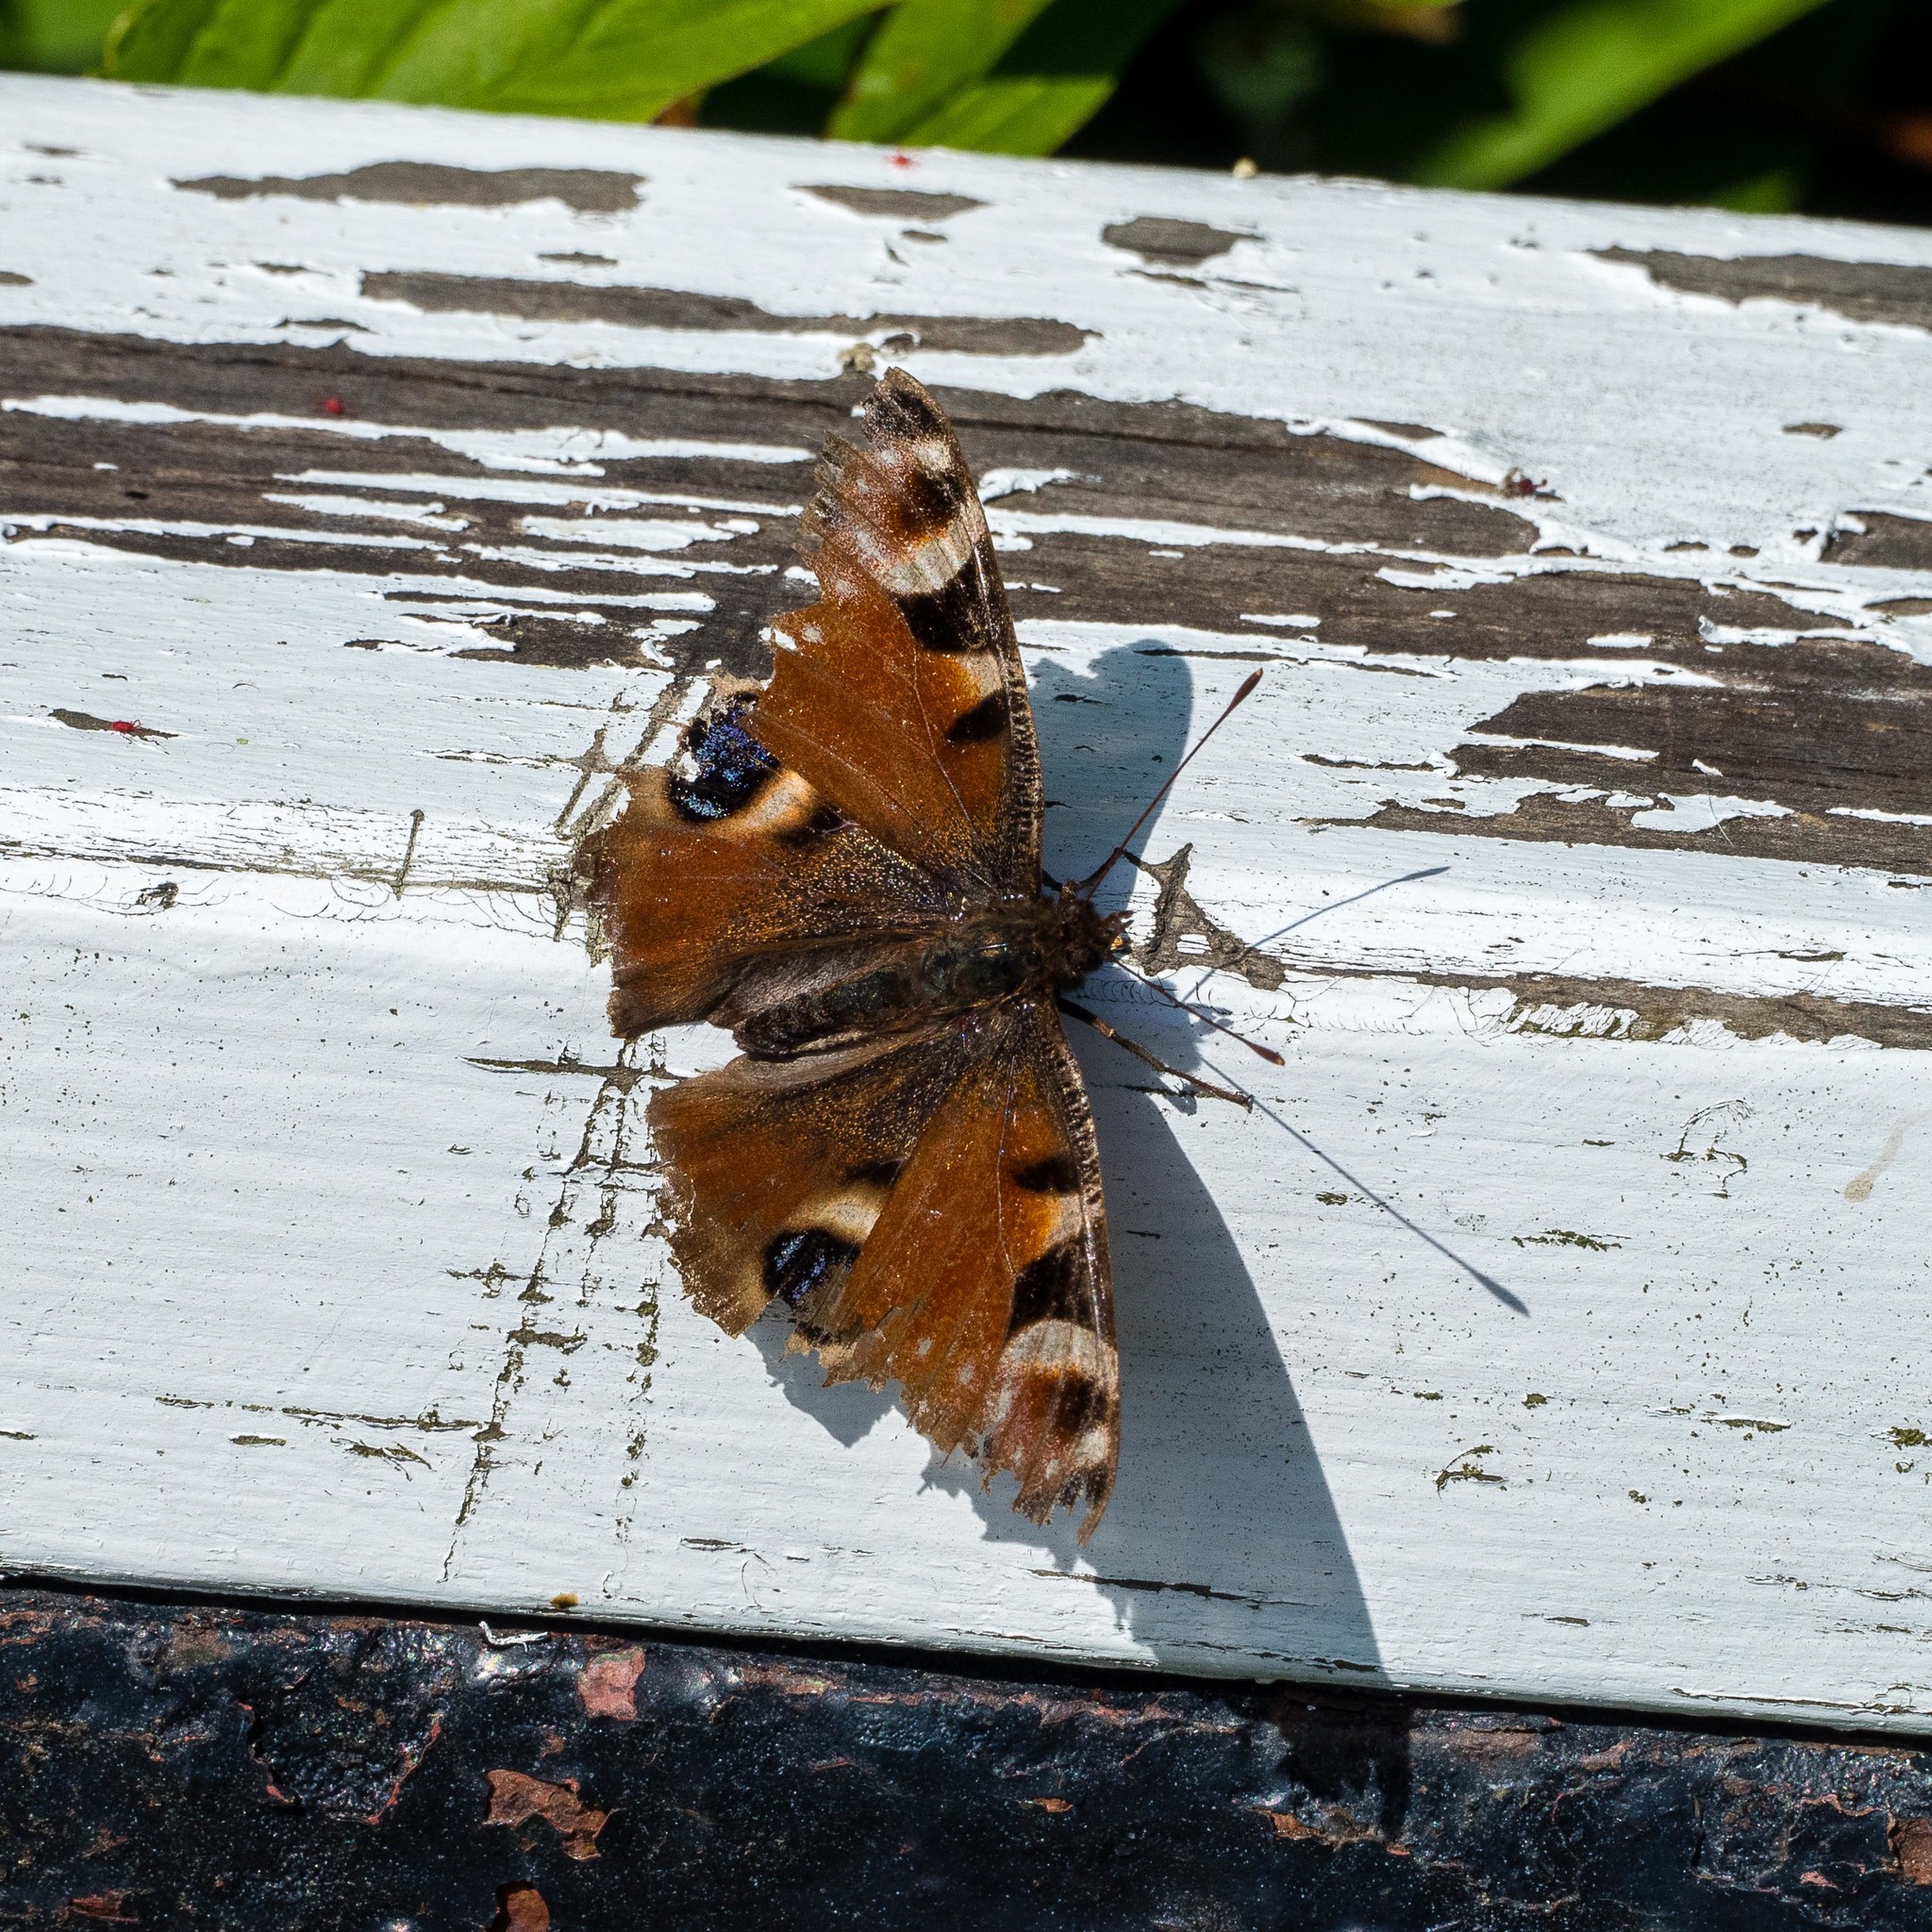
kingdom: Animalia
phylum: Arthropoda
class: Insecta
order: Lepidoptera
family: Nymphalidae
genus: Aglais
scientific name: Aglais io
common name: Peacock
